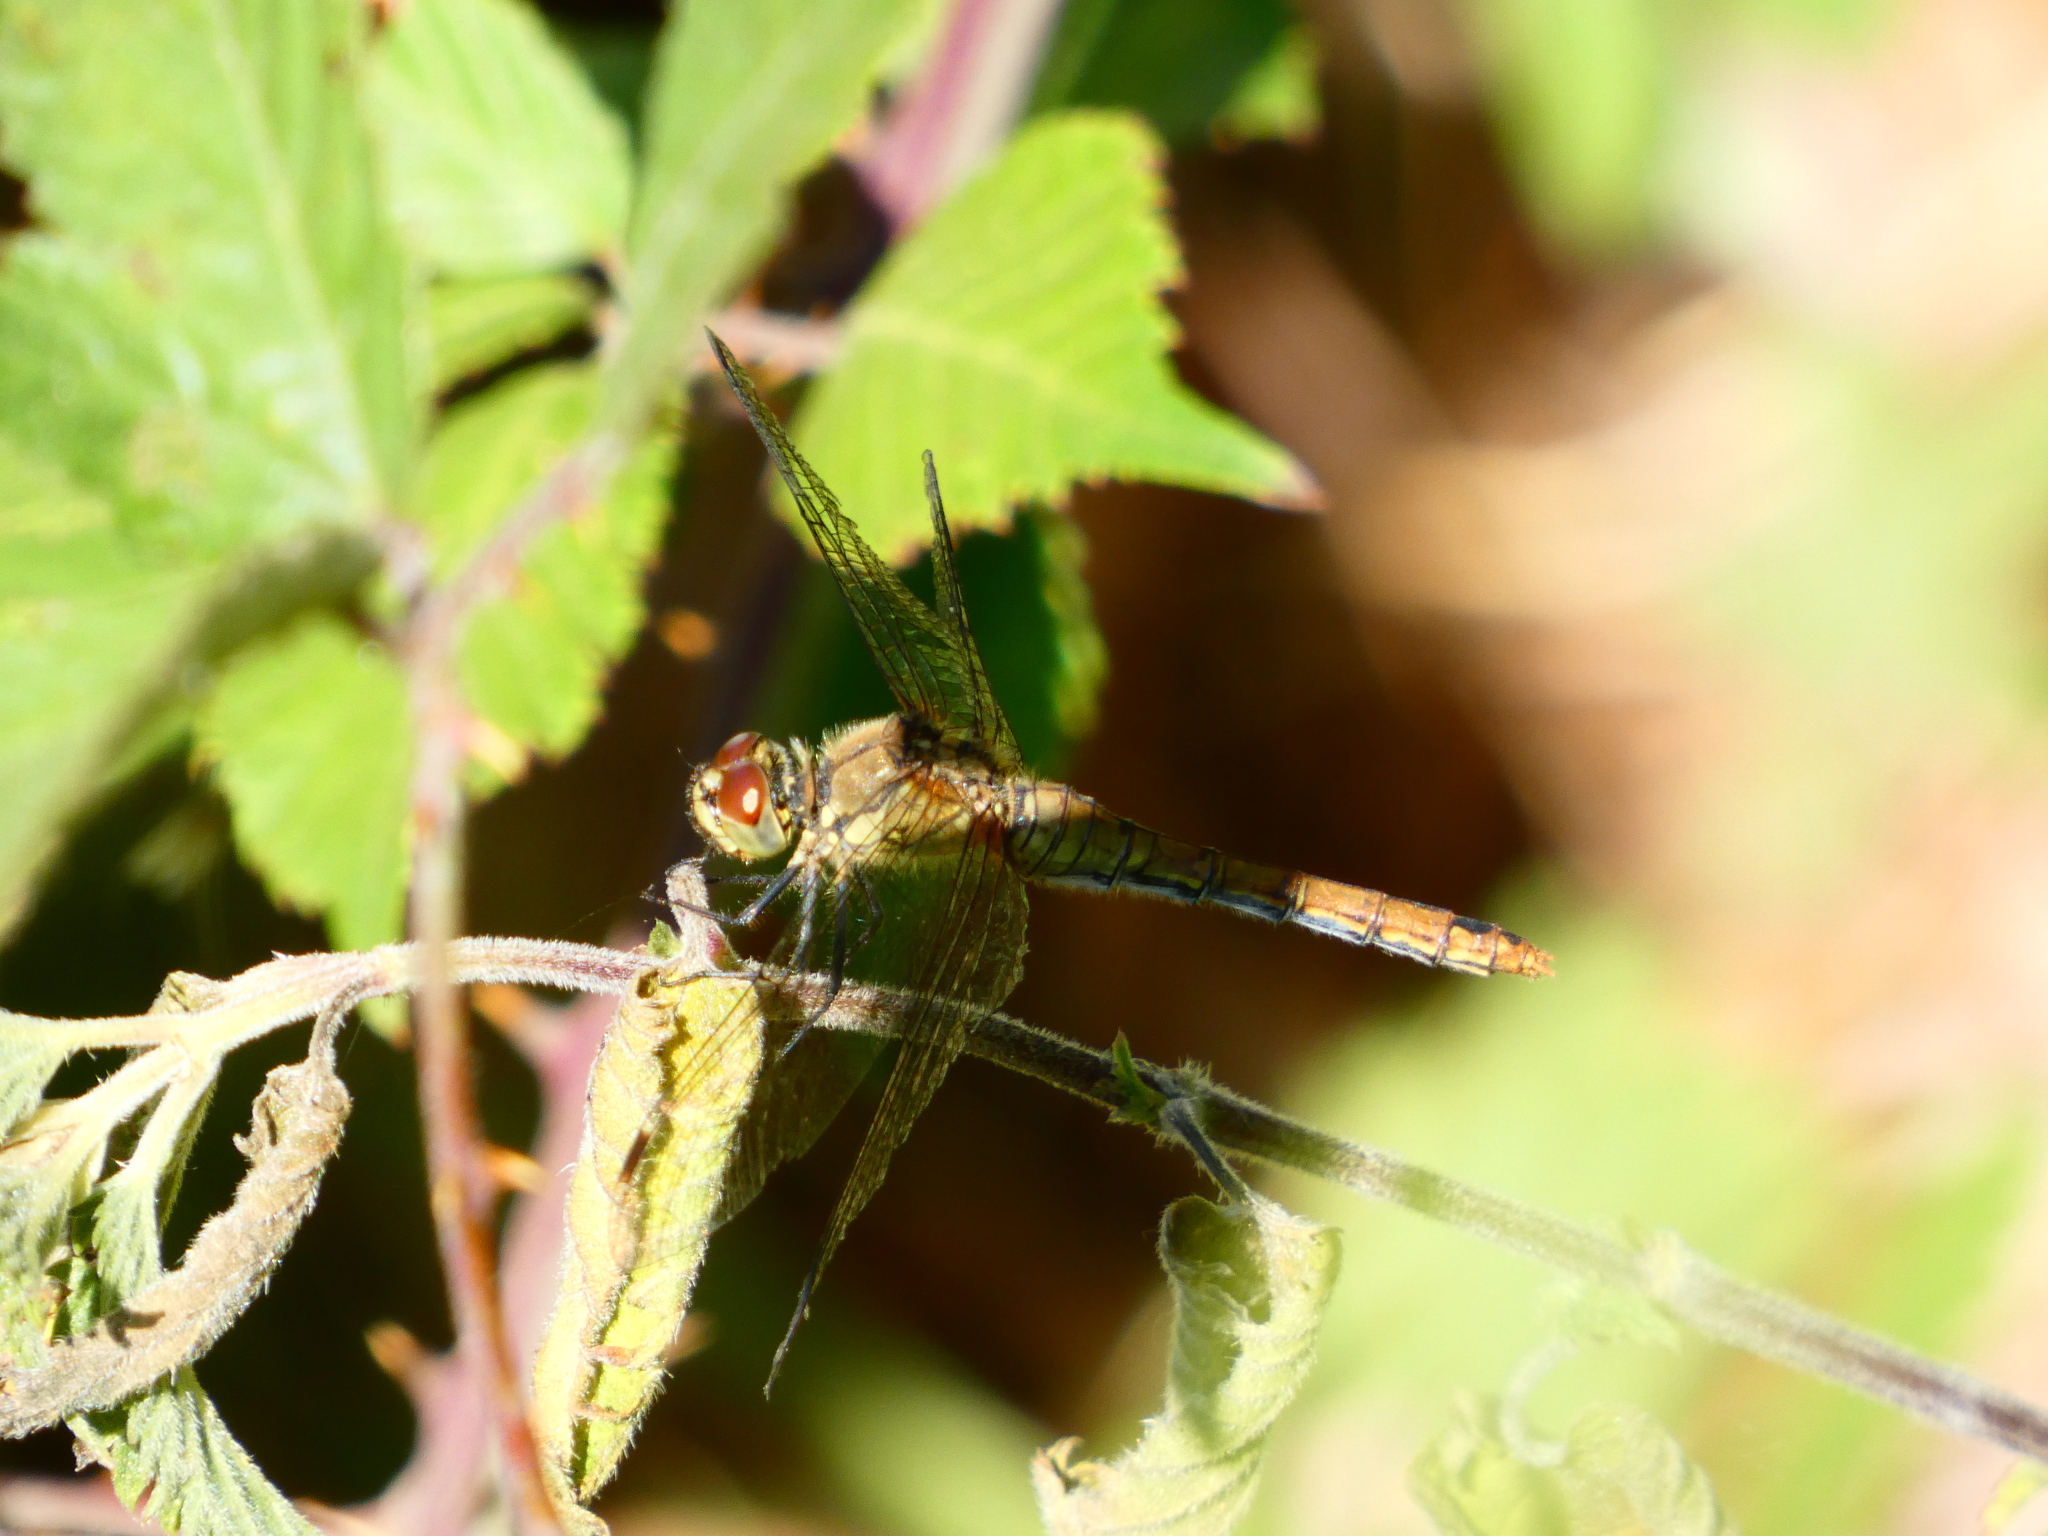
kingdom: Animalia
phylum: Arthropoda
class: Insecta
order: Odonata
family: Libellulidae
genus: Sympetrum
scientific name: Sympetrum sanguineum
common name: Ruddy darter
